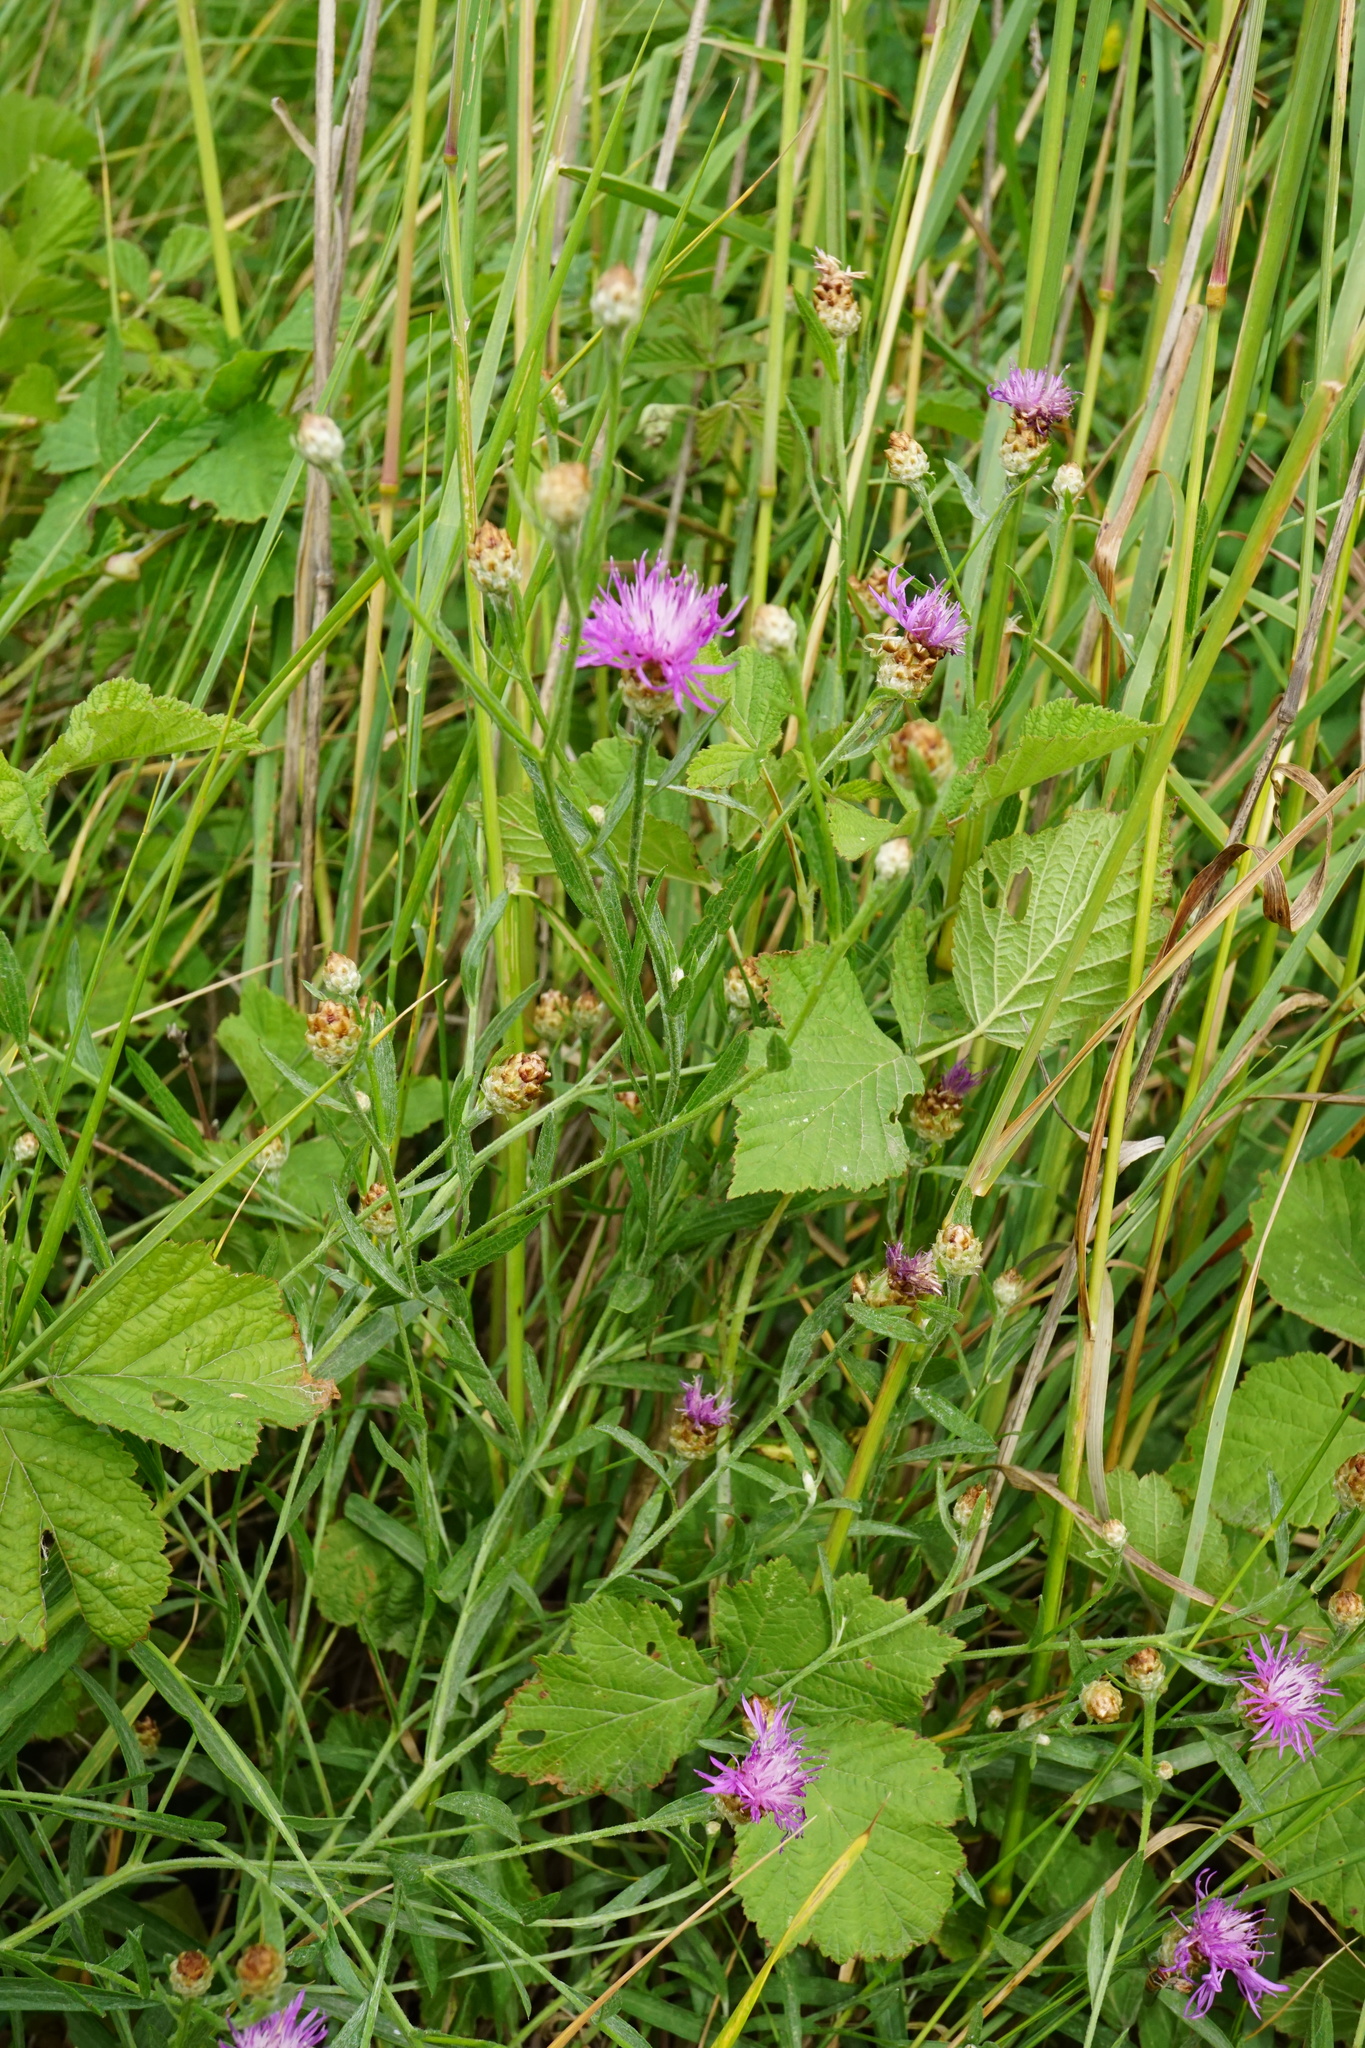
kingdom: Plantae
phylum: Tracheophyta
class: Magnoliopsida
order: Asterales
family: Asteraceae
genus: Centaurea
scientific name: Centaurea jacea
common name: Brown knapweed
